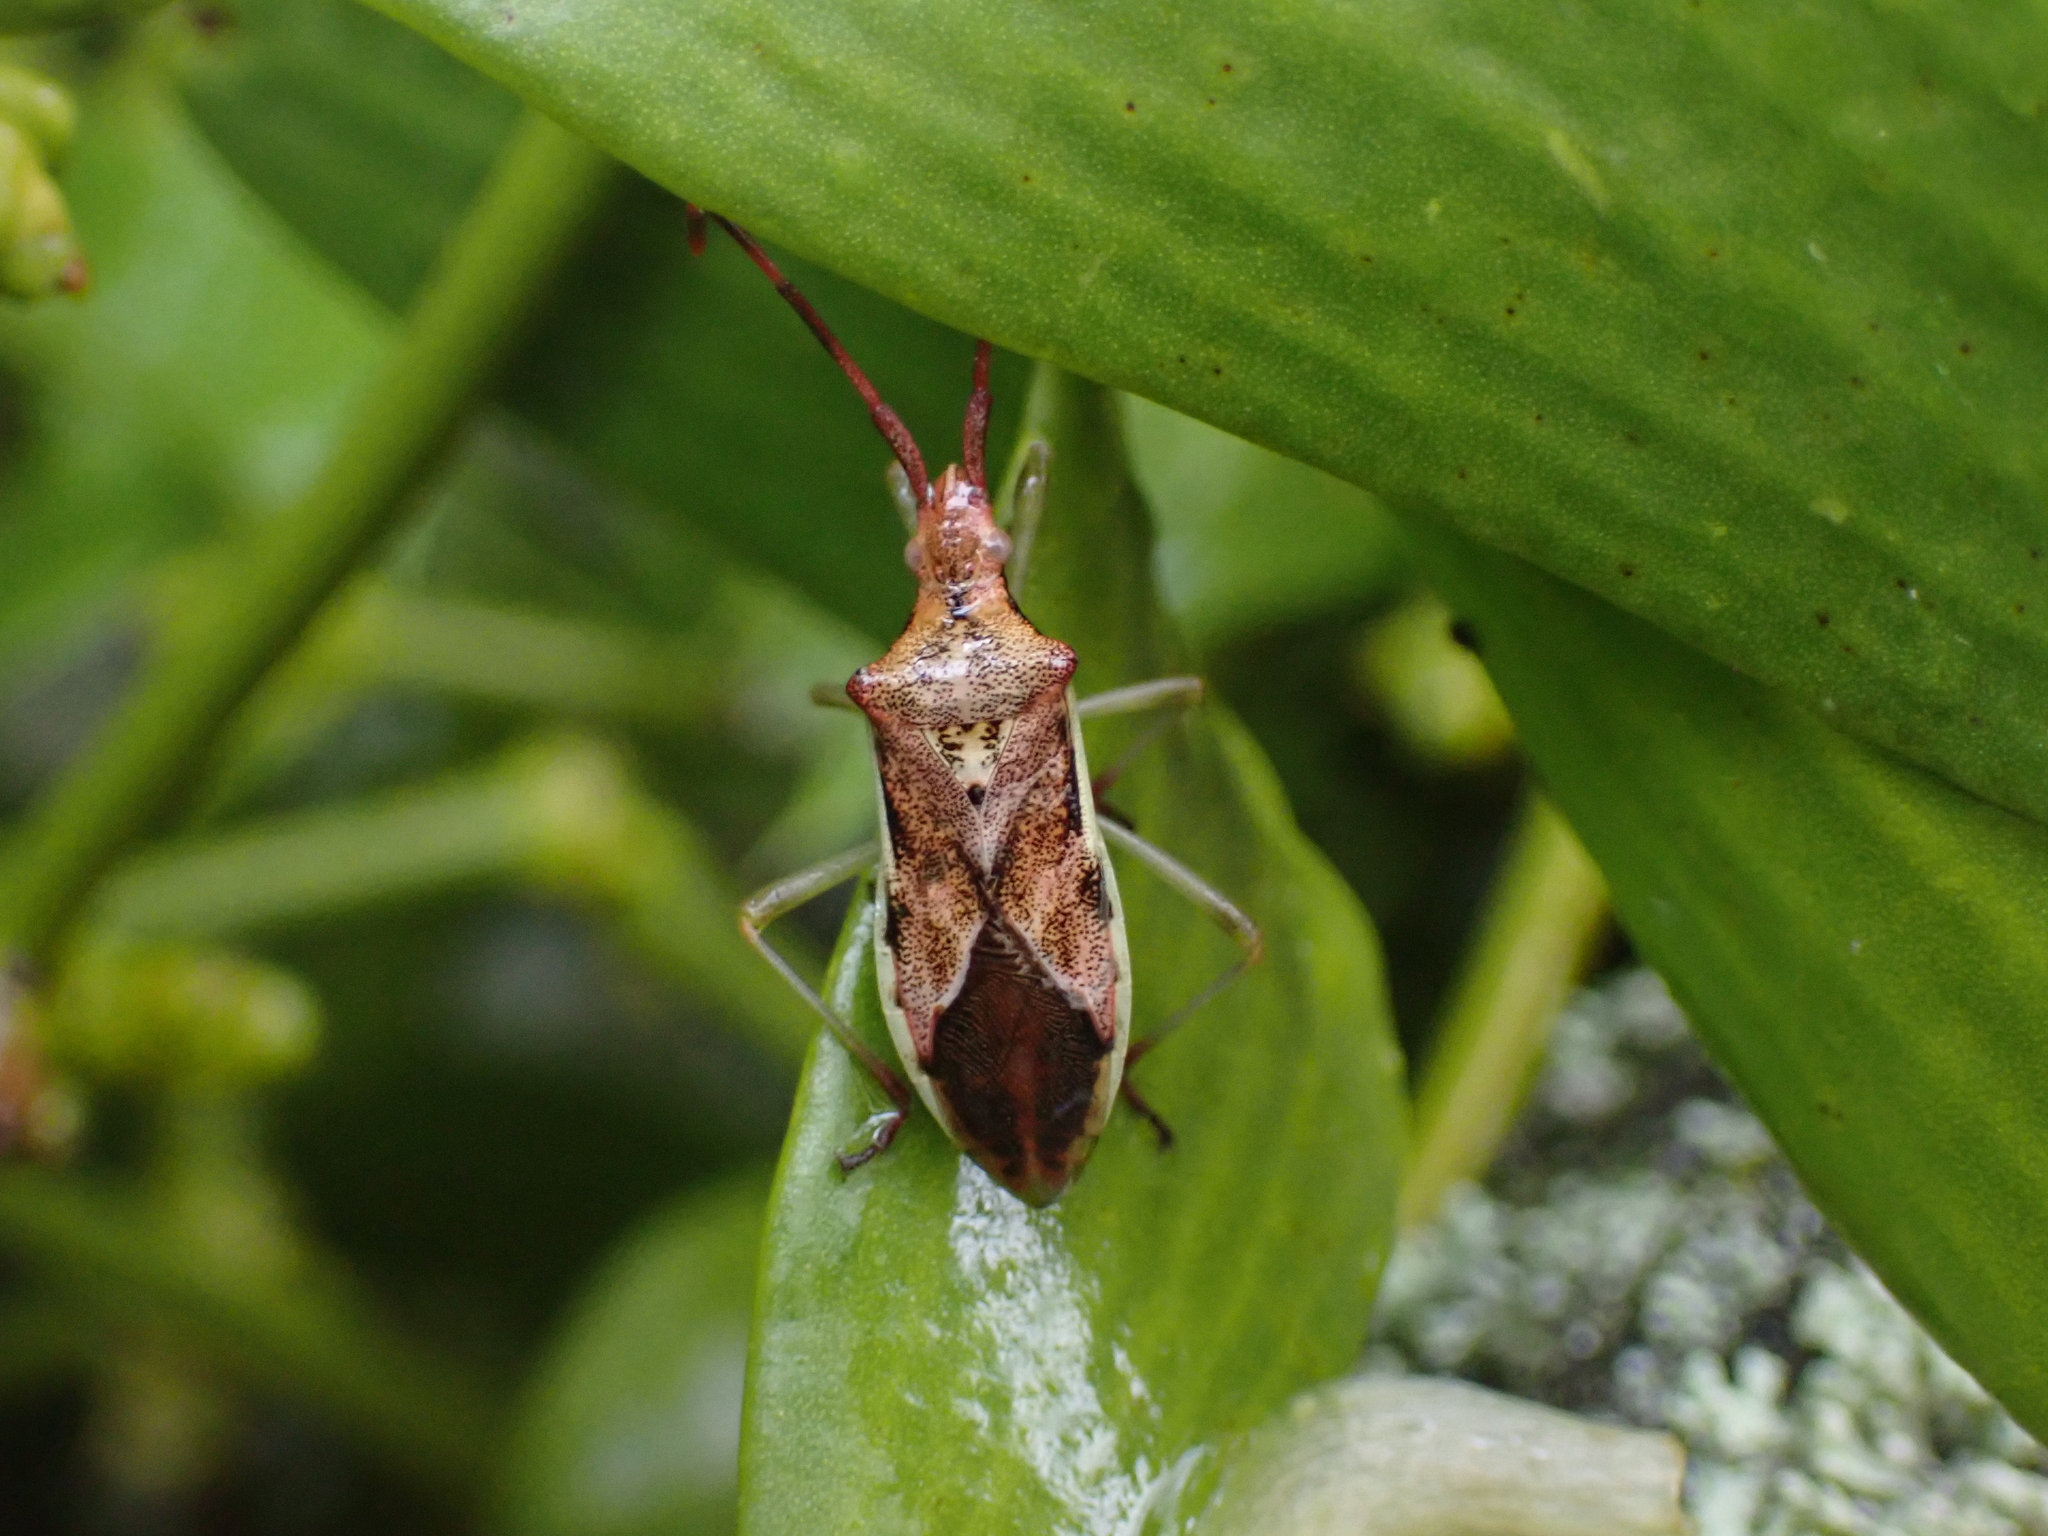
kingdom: Animalia
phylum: Arthropoda
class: Insecta
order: Hemiptera
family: Coreidae
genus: Gonocerus
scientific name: Gonocerus juniperi
